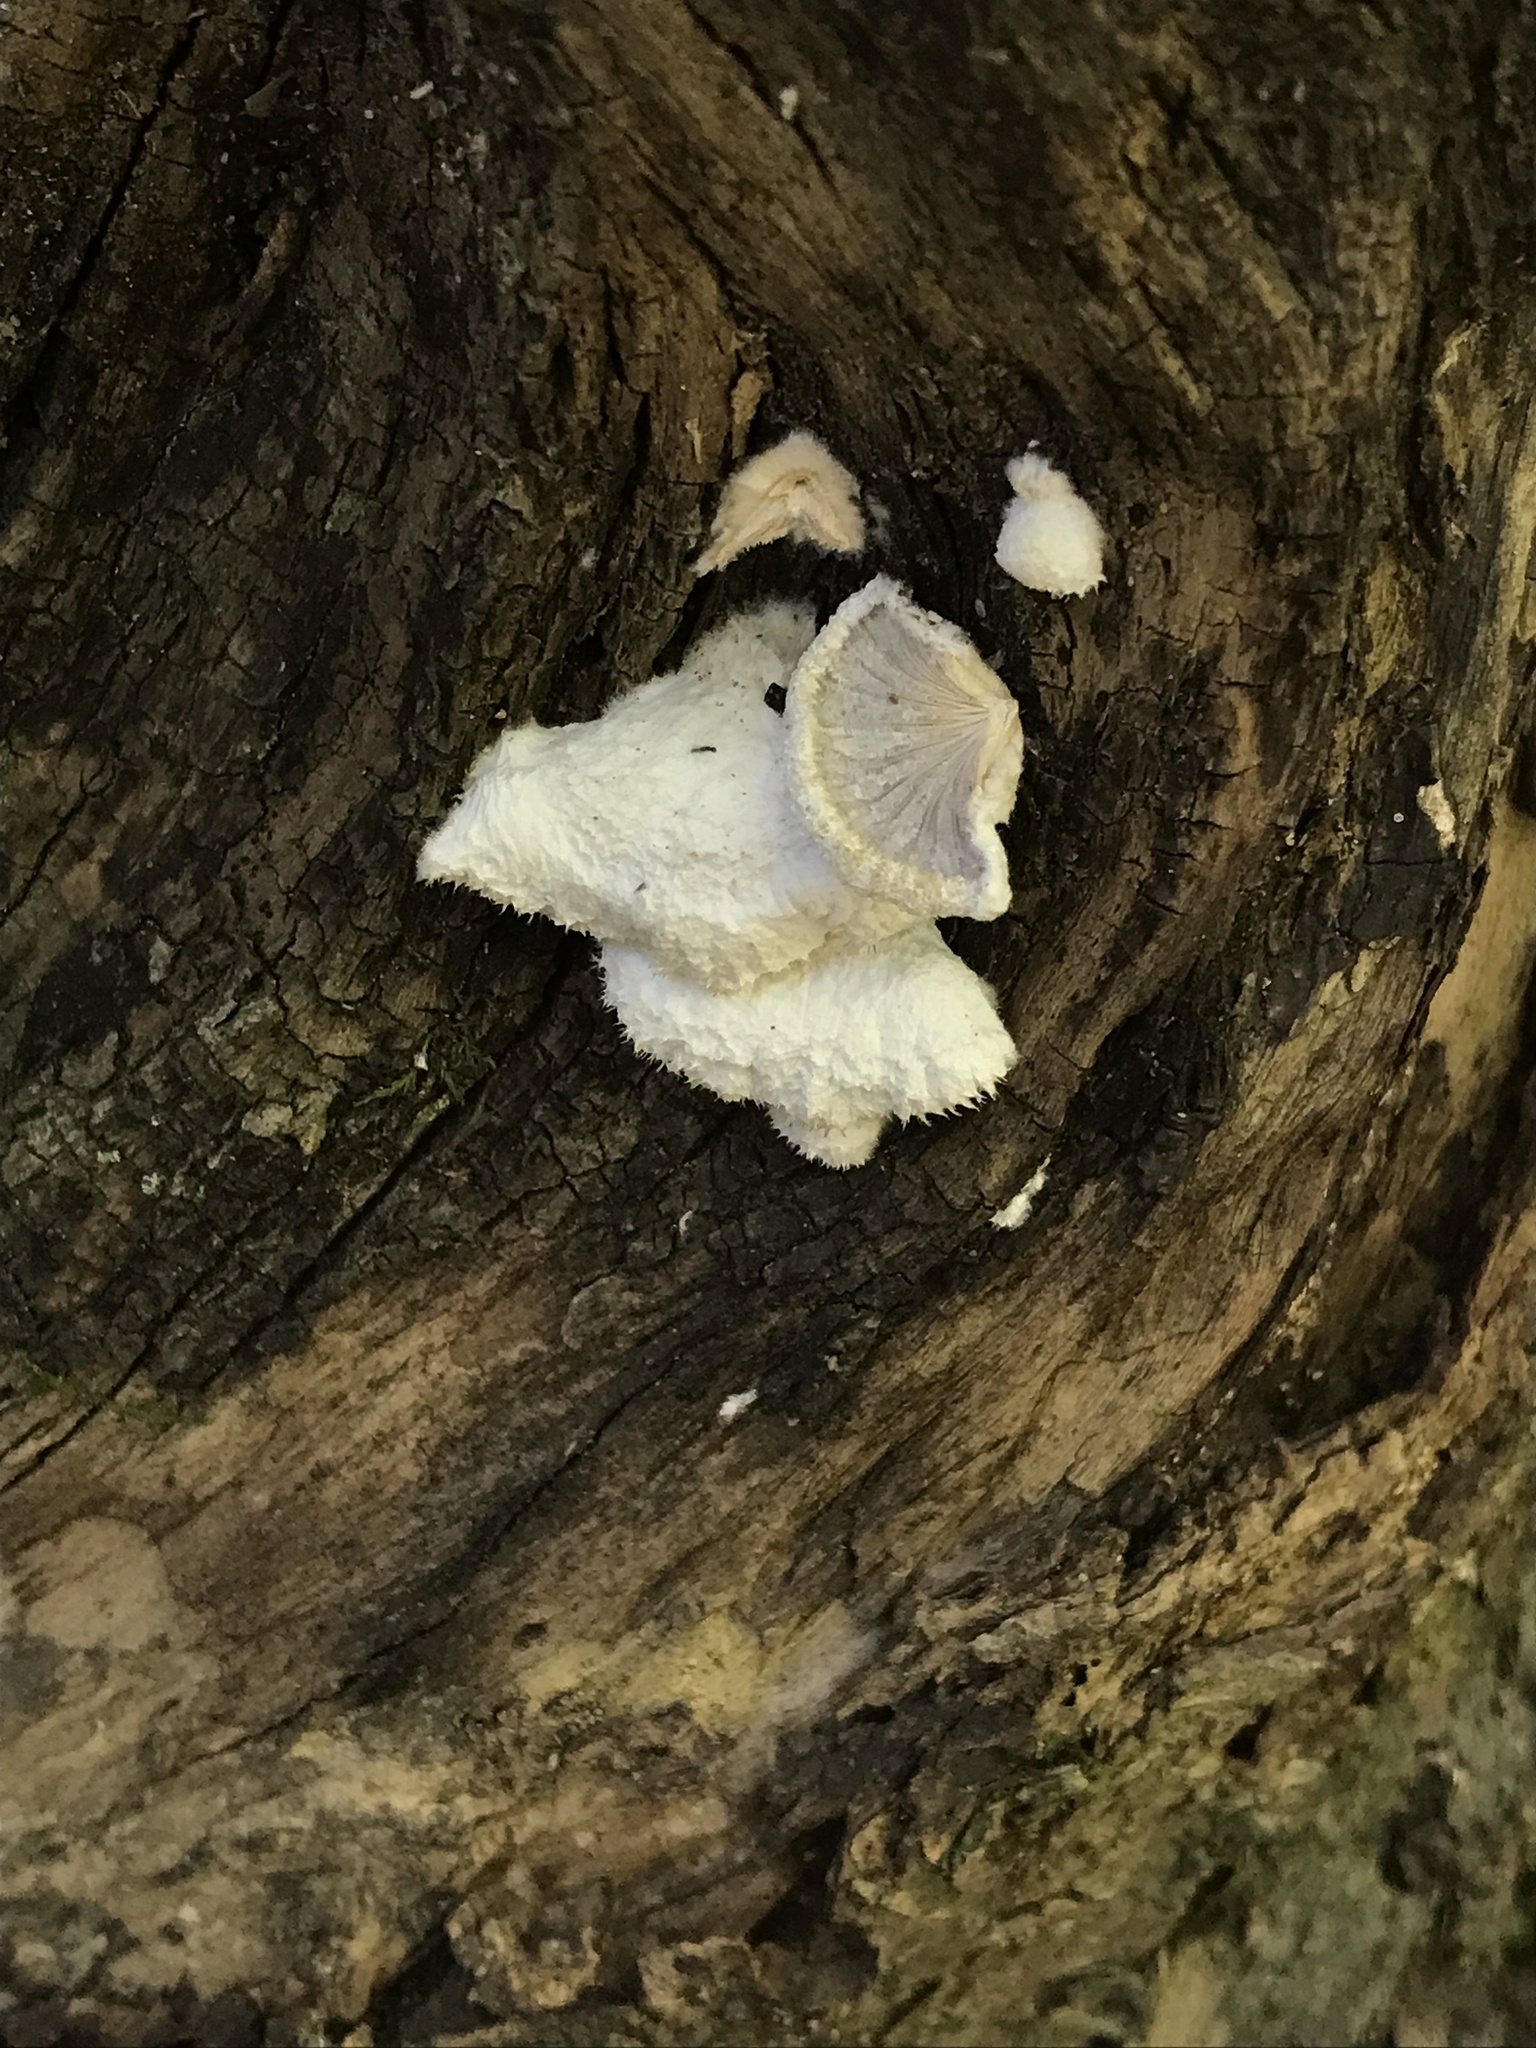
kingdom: Fungi
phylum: Basidiomycota
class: Agaricomycetes
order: Agaricales
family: Schizophyllaceae
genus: Schizophyllum
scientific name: Schizophyllum commune
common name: Common porecrust
